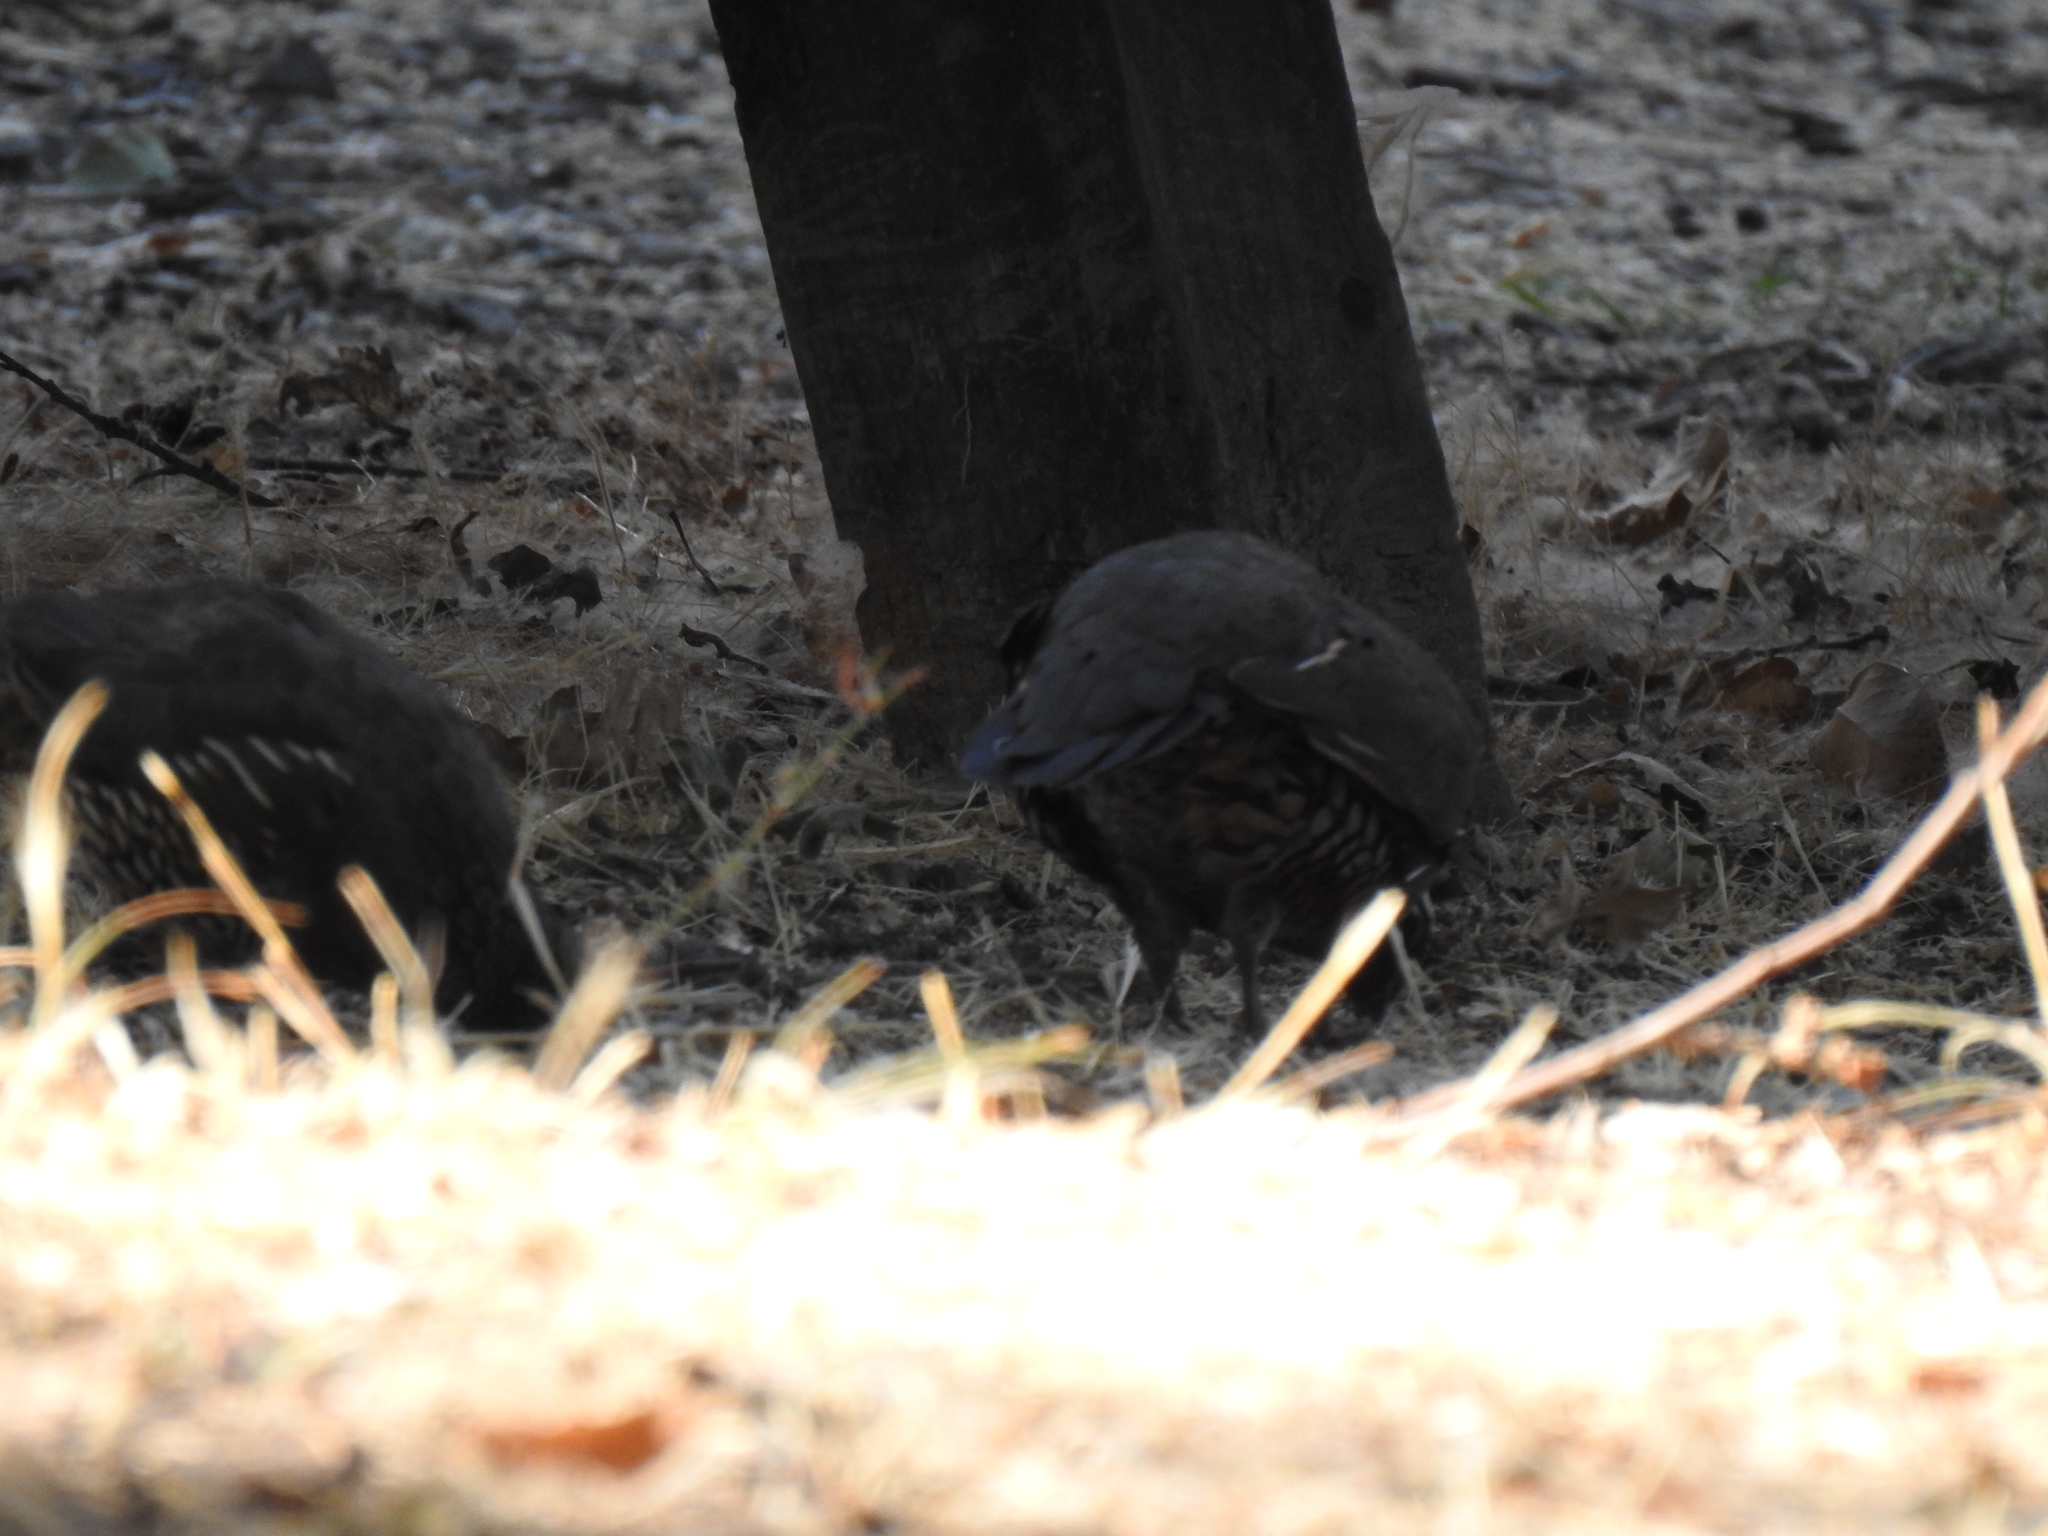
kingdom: Animalia
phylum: Chordata
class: Aves
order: Galliformes
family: Odontophoridae
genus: Callipepla
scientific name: Callipepla californica
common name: California quail
